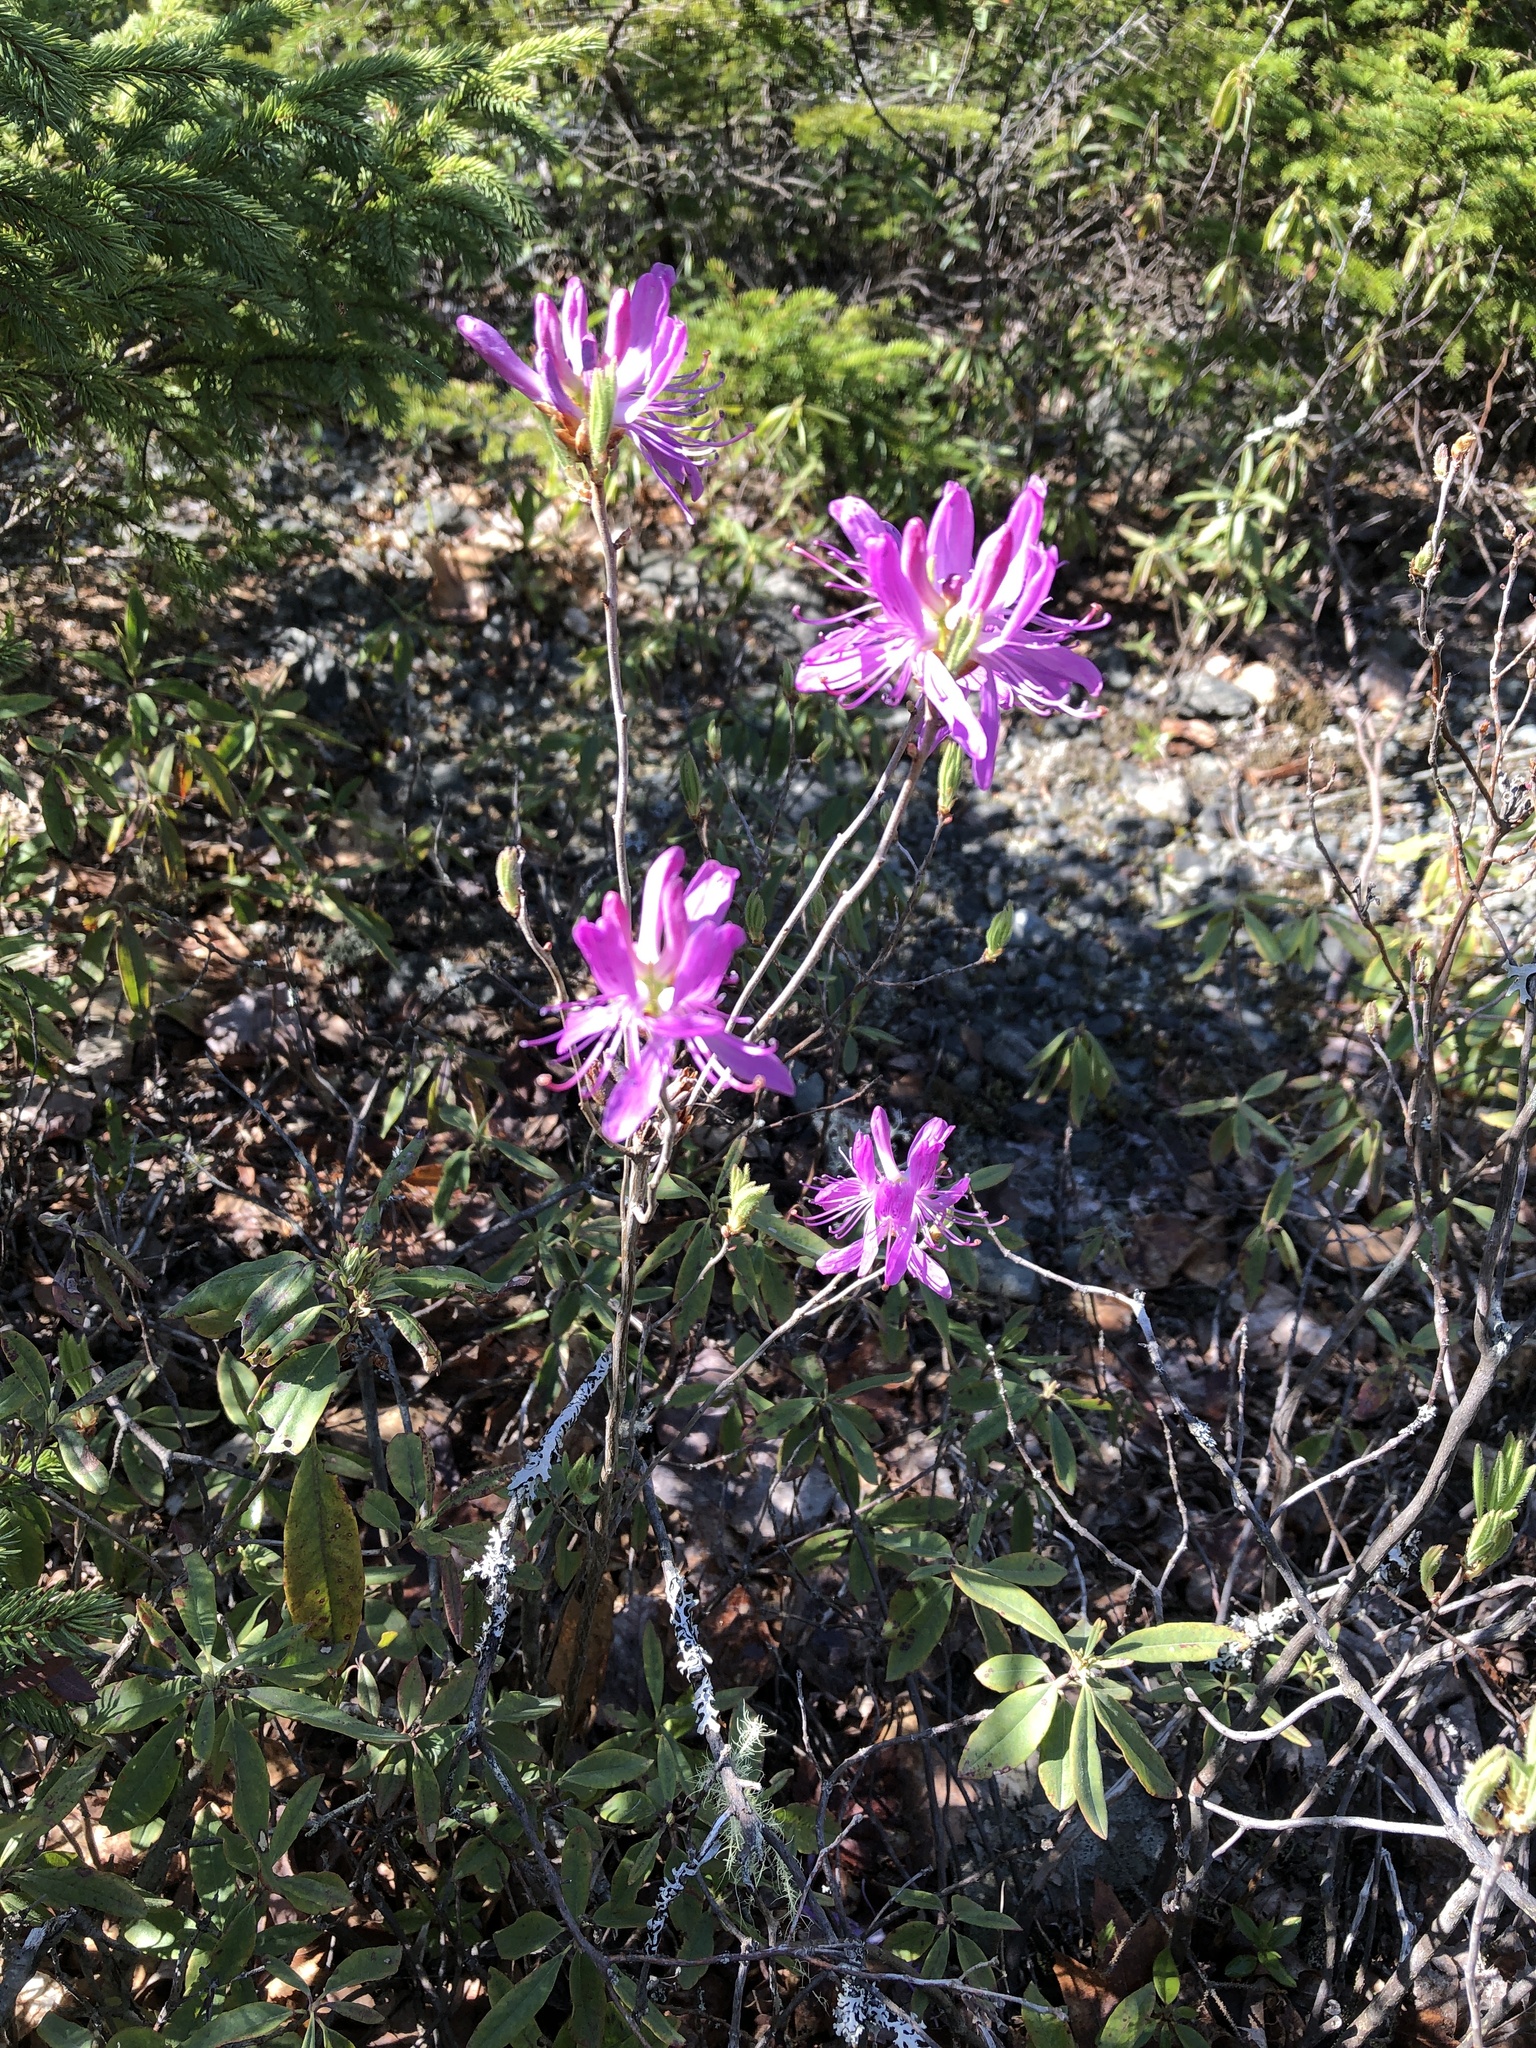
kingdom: Plantae
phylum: Tracheophyta
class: Magnoliopsida
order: Ericales
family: Ericaceae
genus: Rhododendron
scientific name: Rhododendron canadense
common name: Rhodora
